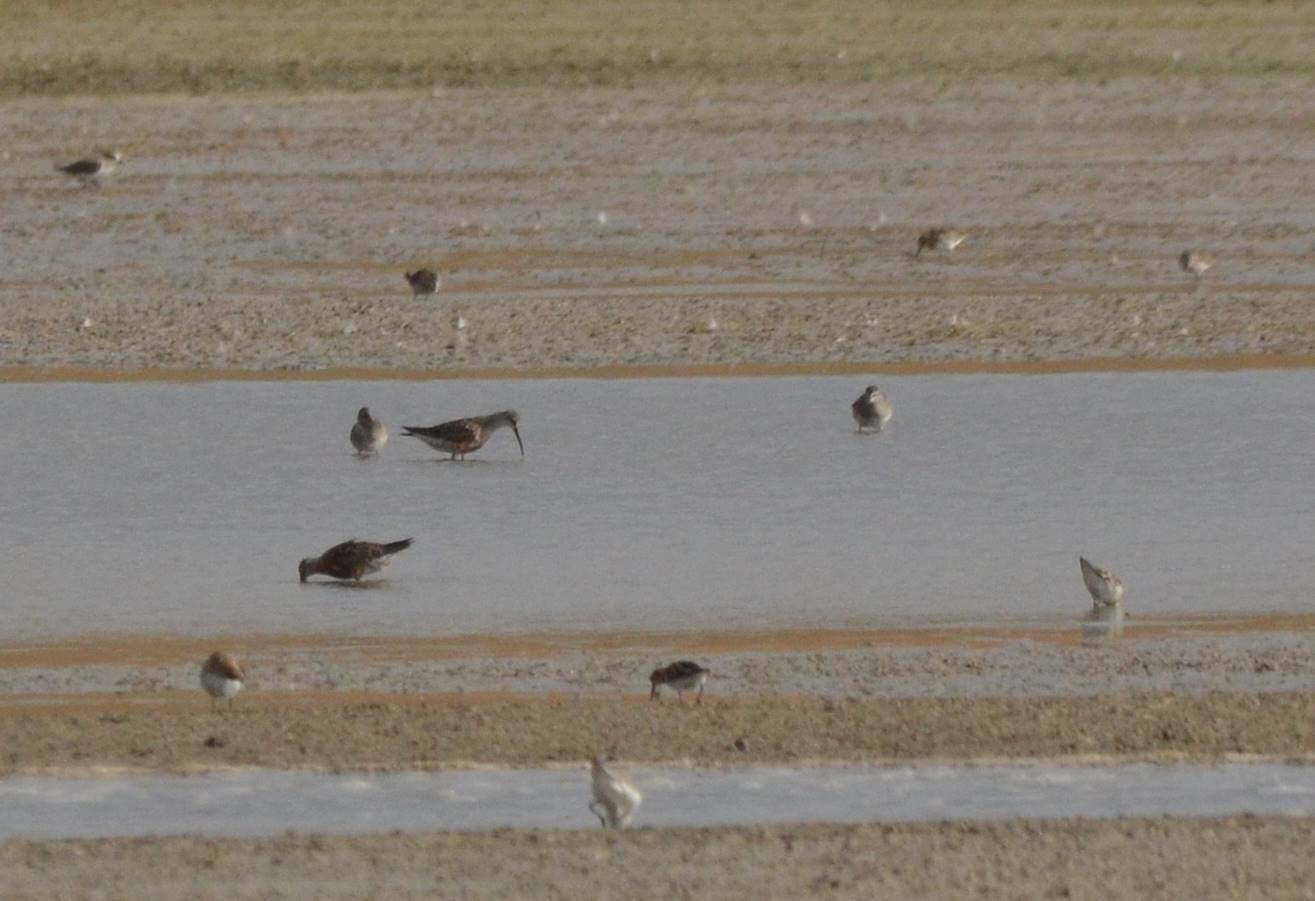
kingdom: Animalia
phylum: Chordata
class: Aves
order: Charadriiformes
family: Scolopacidae
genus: Calidris
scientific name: Calidris ferruginea
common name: Curlew sandpiper
